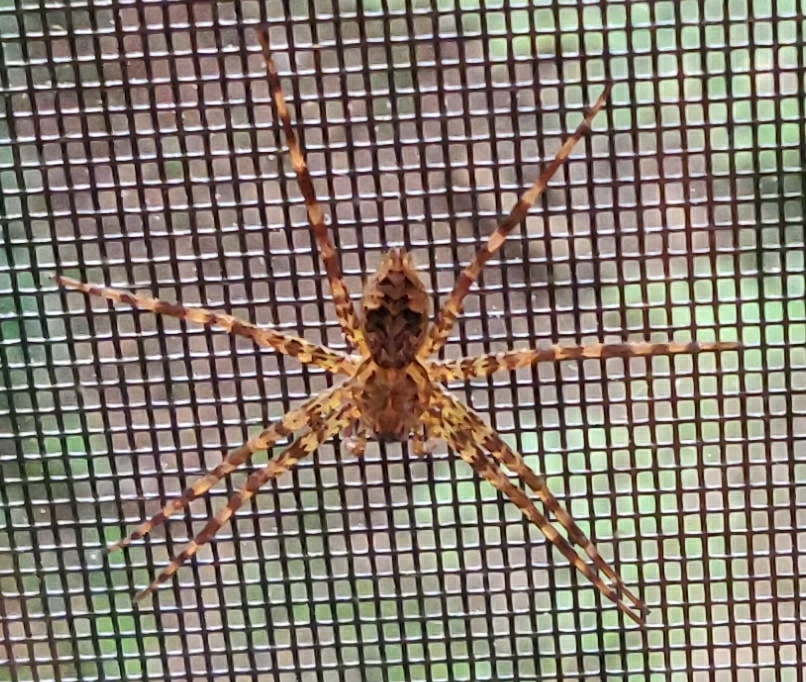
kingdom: Animalia
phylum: Arthropoda
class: Arachnida
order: Araneae
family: Pisauridae
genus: Dolomedes
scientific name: Dolomedes tenebrosus
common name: Dark fishing spider
